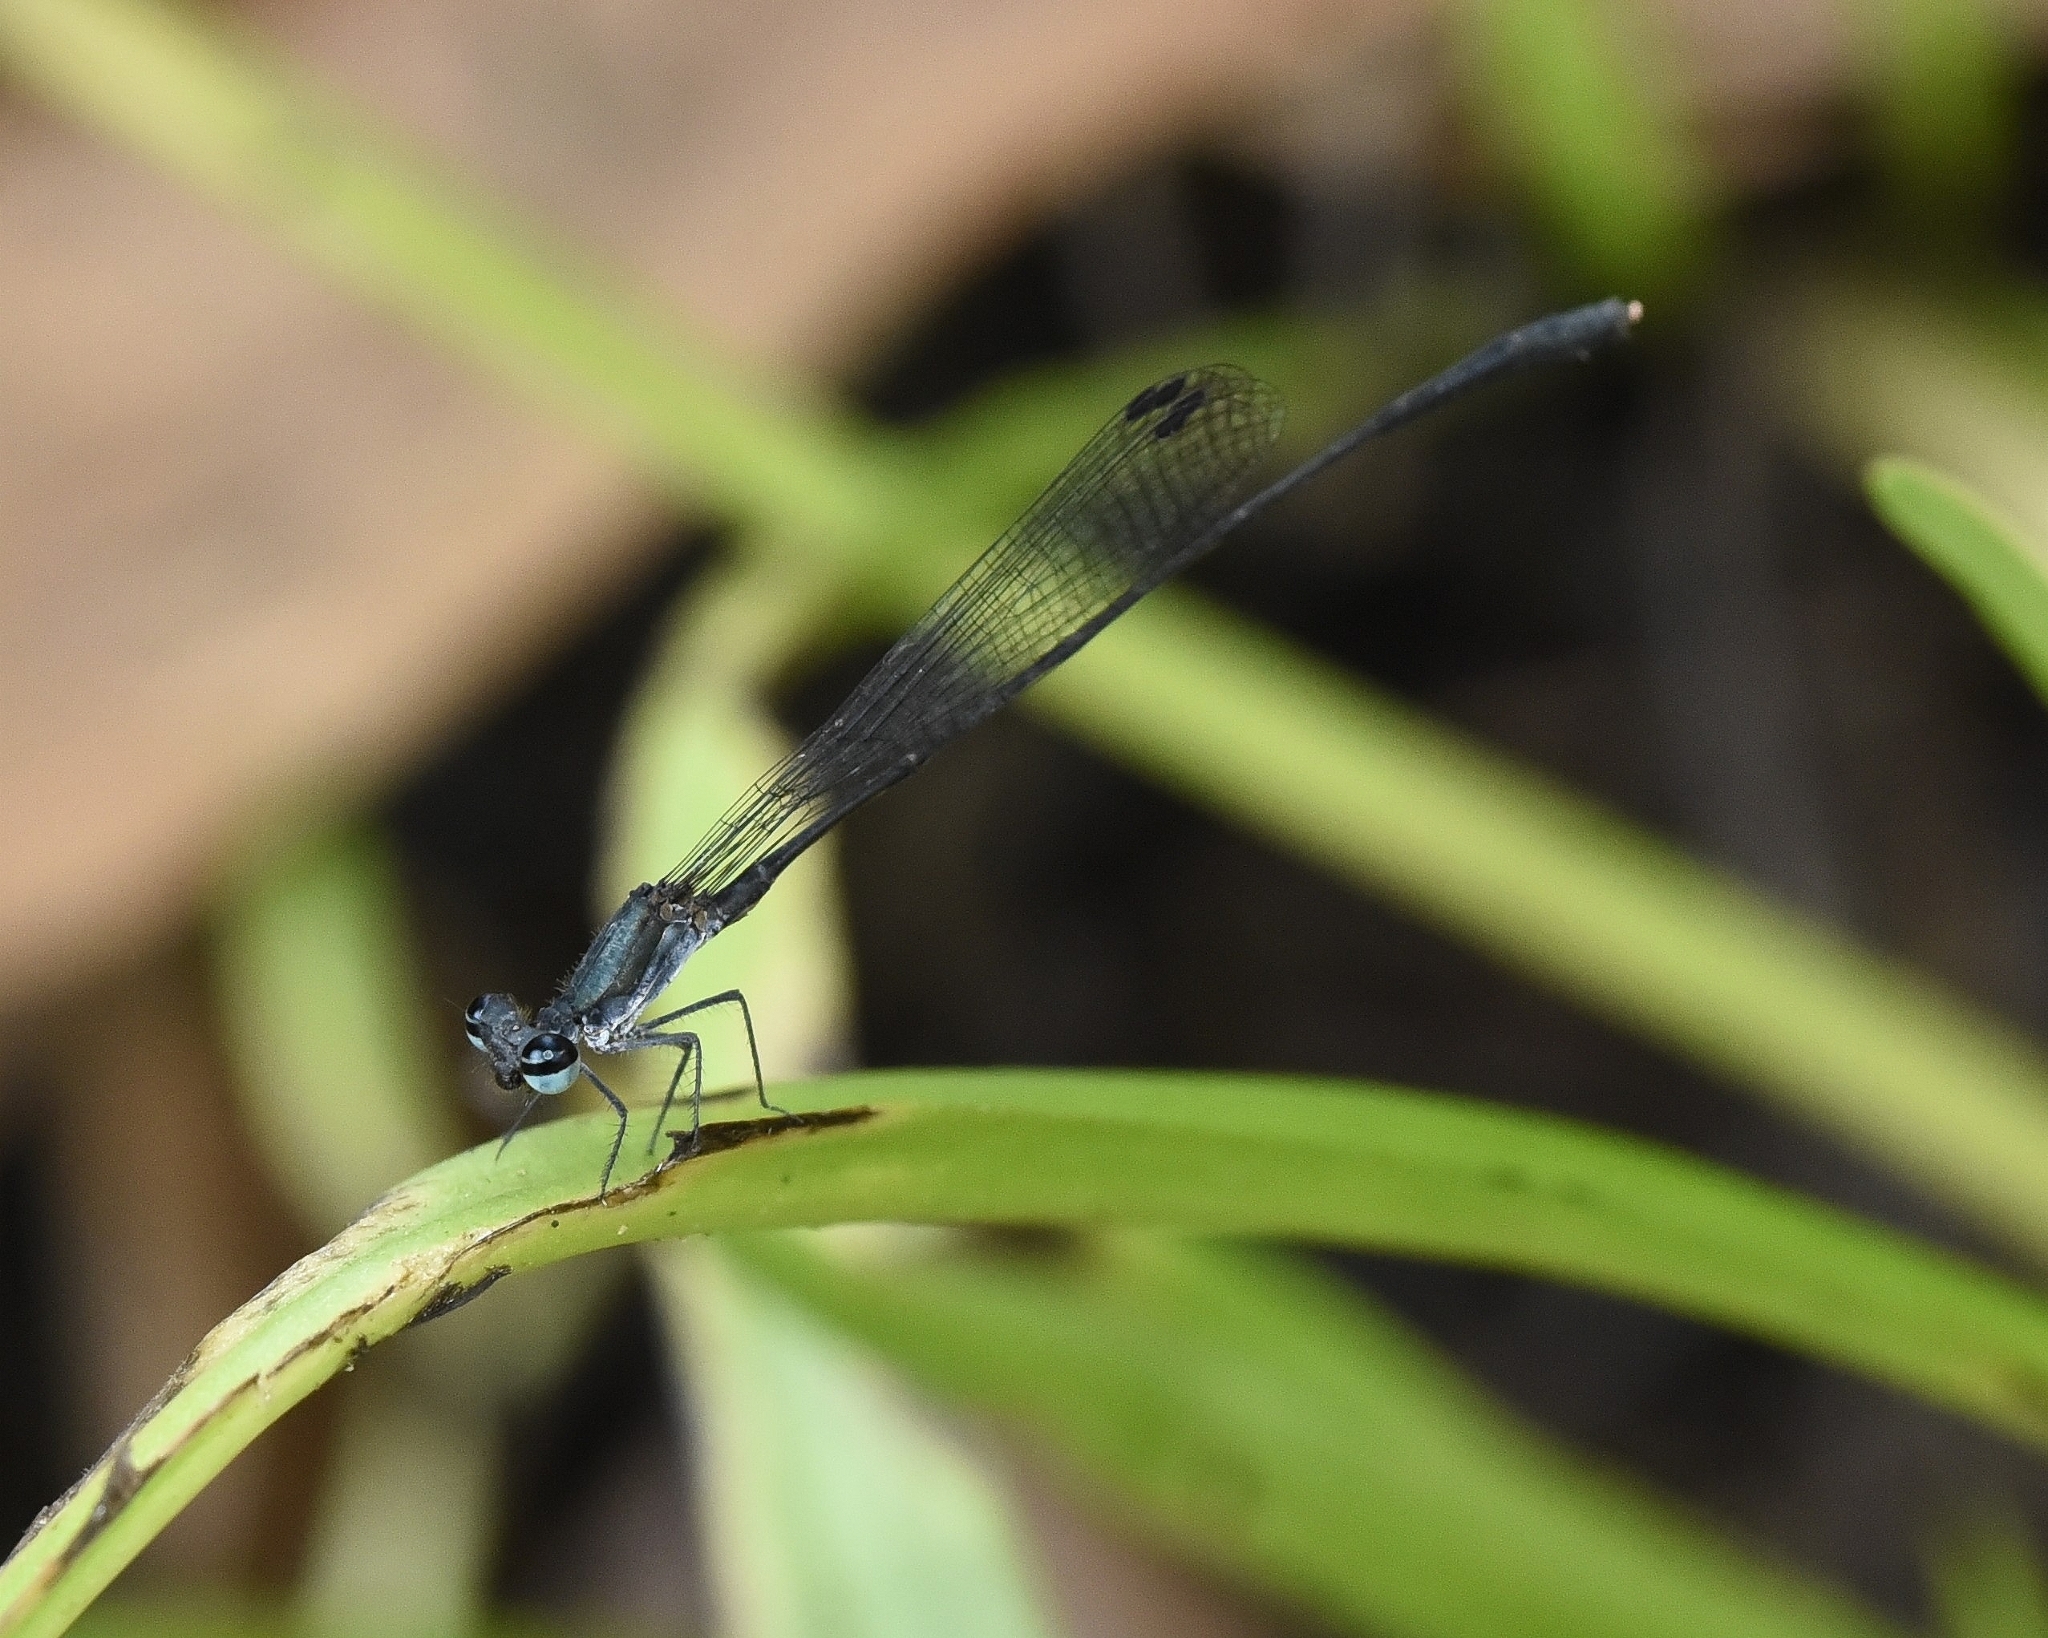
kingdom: Animalia
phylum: Arthropoda
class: Insecta
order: Odonata
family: Platycnemididae
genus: Elattoneura
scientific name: Elattoneura tetrica
